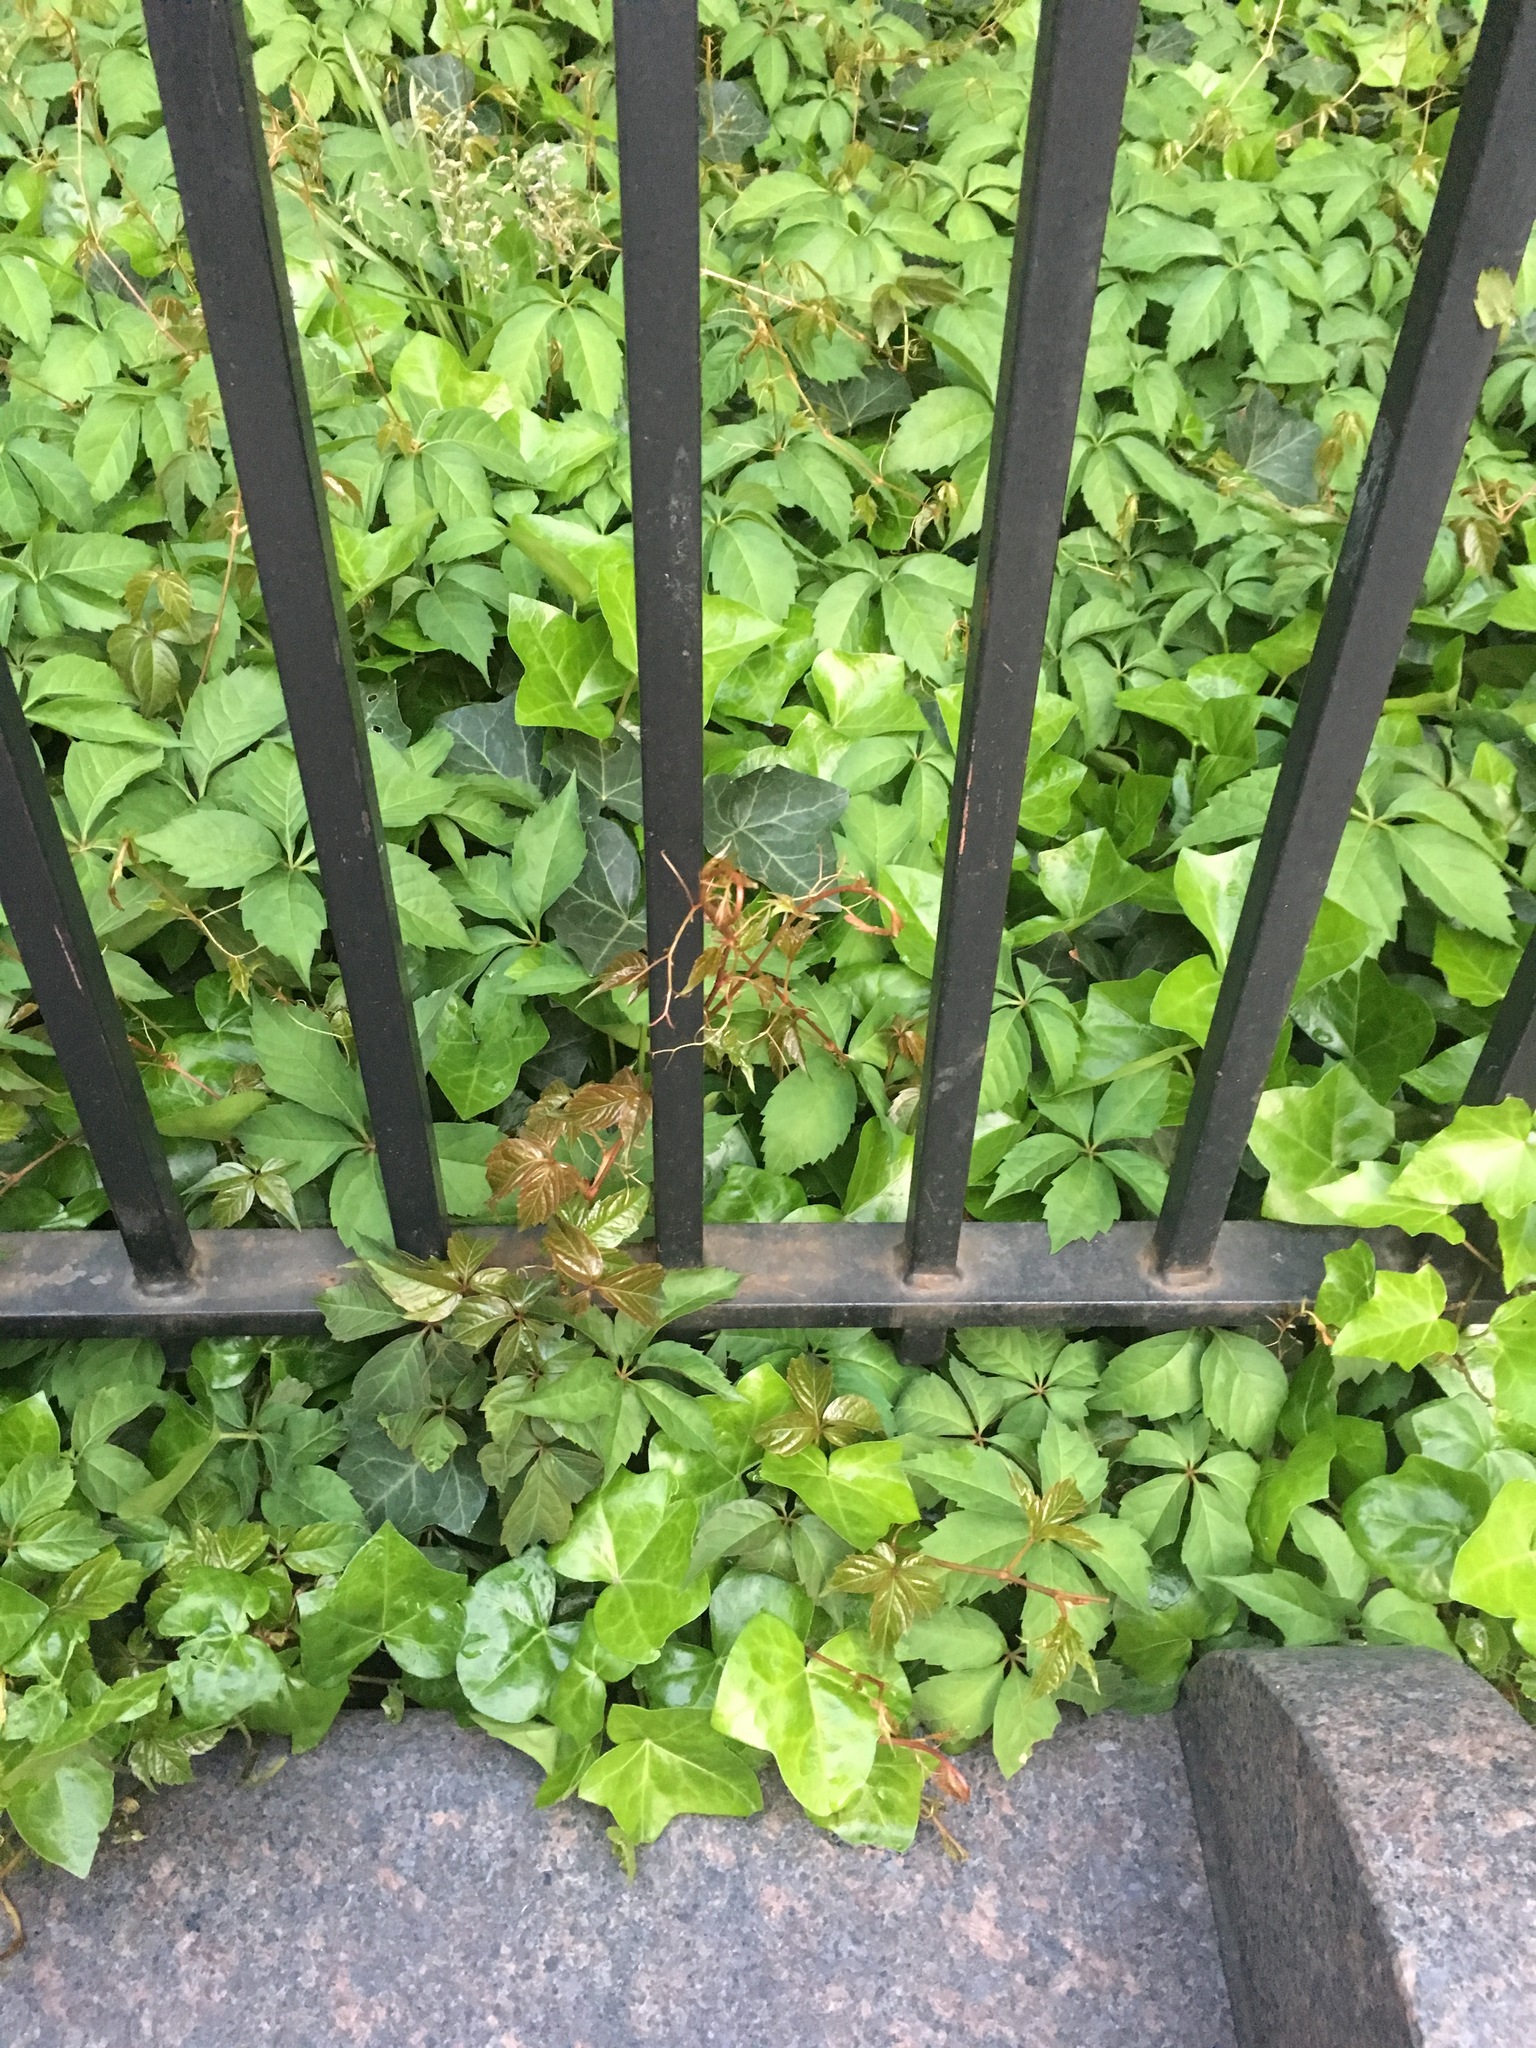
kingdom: Plantae
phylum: Tracheophyta
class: Magnoliopsida
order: Vitales
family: Vitaceae
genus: Parthenocissus
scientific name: Parthenocissus inserta
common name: False virginia-creeper
